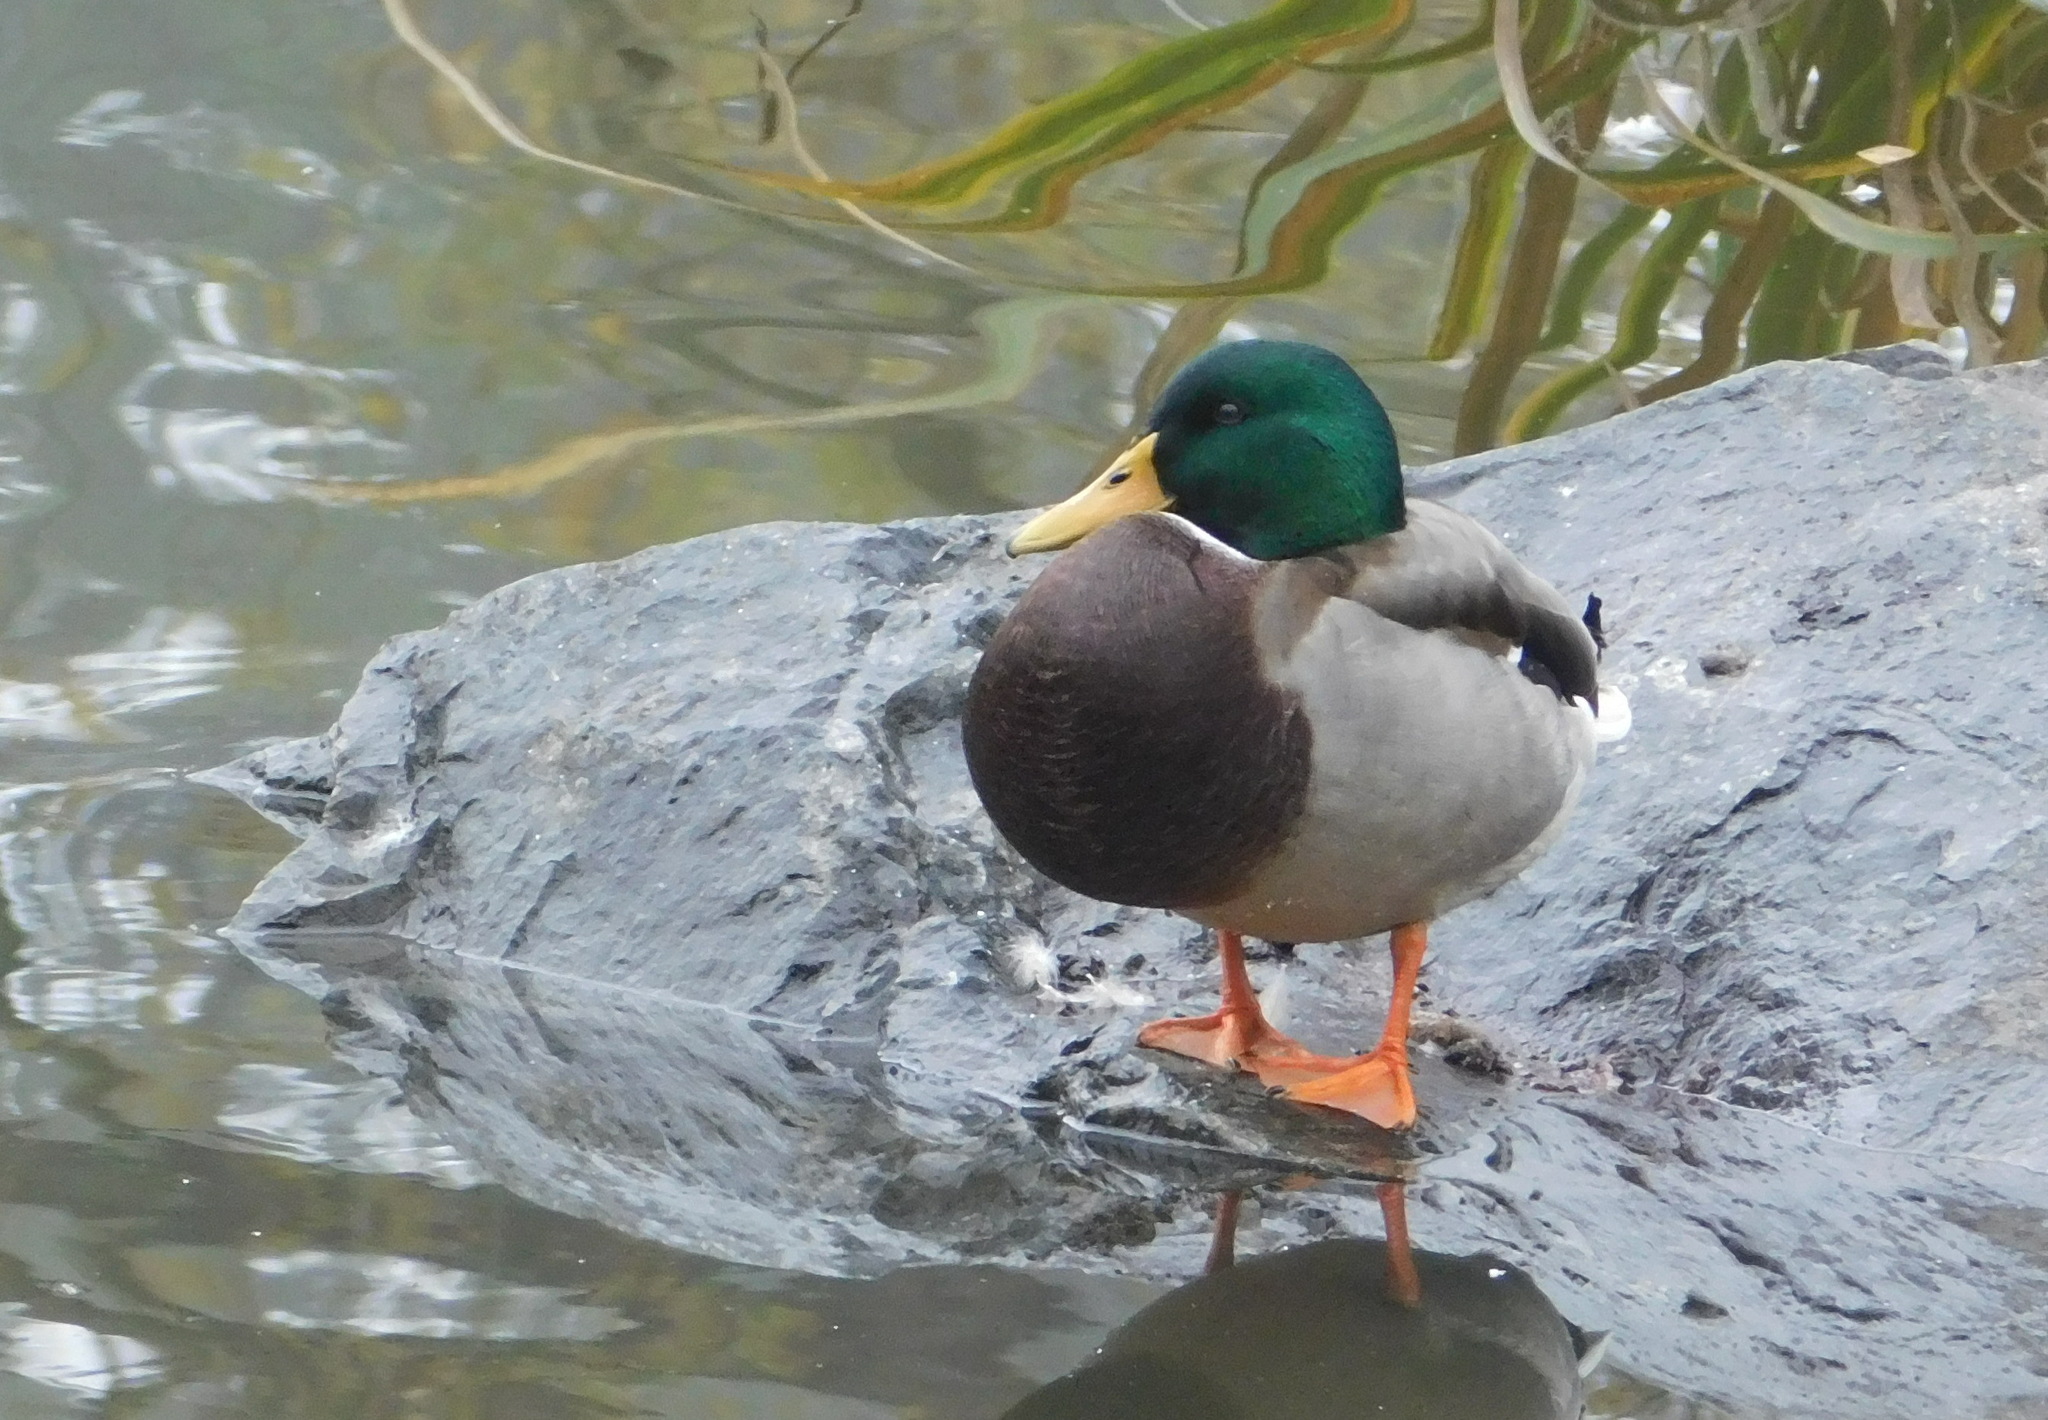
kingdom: Animalia
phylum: Chordata
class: Aves
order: Anseriformes
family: Anatidae
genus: Anas
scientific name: Anas platyrhynchos
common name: Mallard
